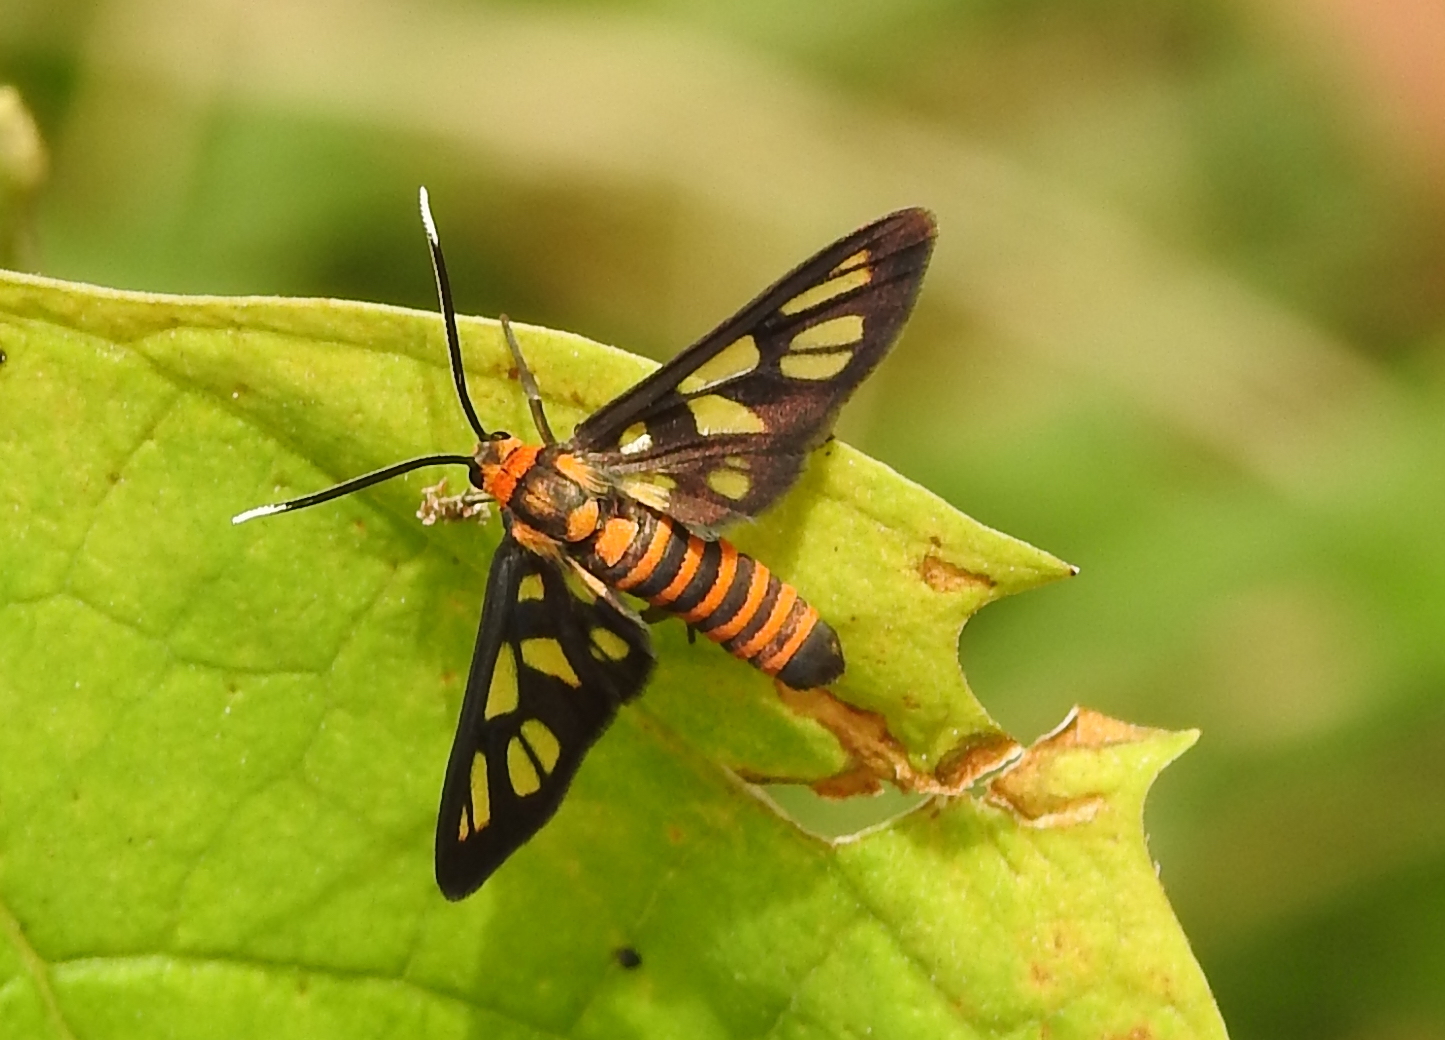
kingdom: Animalia
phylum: Arthropoda
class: Insecta
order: Lepidoptera
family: Erebidae
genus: Amata
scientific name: Amata huebneri
